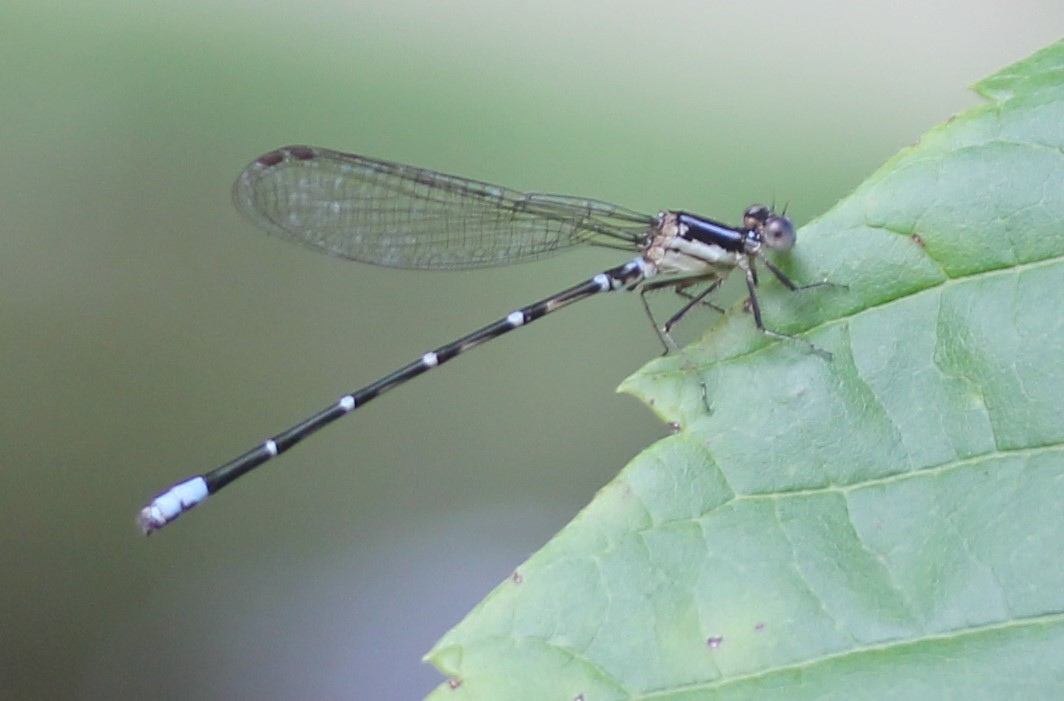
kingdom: Animalia
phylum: Arthropoda
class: Insecta
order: Odonata
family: Coenagrionidae
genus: Argia
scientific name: Argia sedula
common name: Blue-ringed dancer
